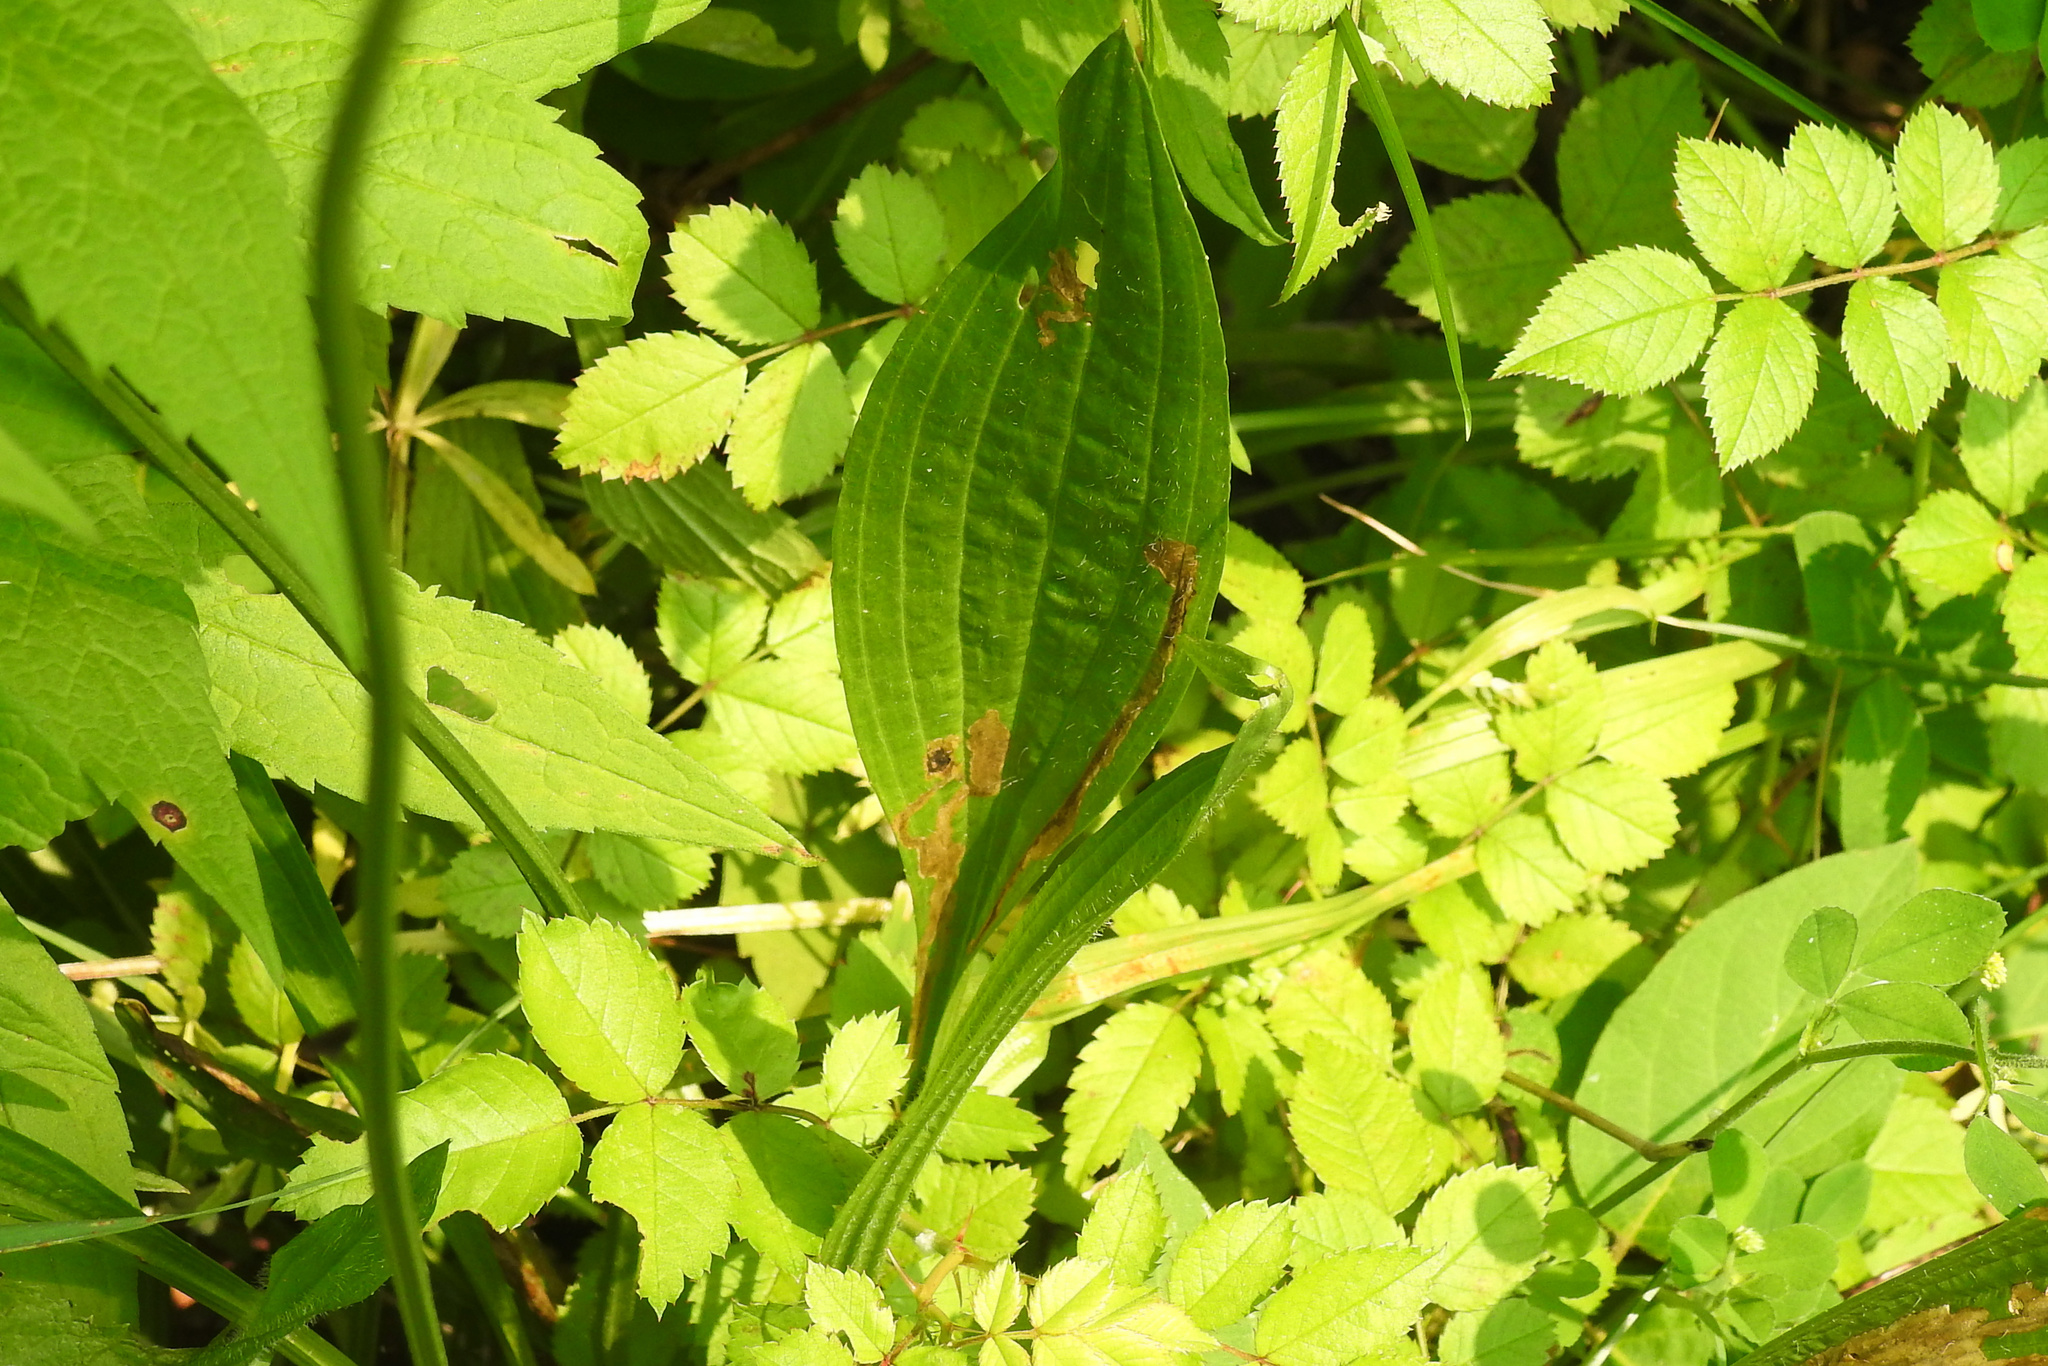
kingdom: Plantae
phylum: Tracheophyta
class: Magnoliopsida
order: Lamiales
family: Plantaginaceae
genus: Plantago
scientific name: Plantago lanceolata
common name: Ribwort plantain
